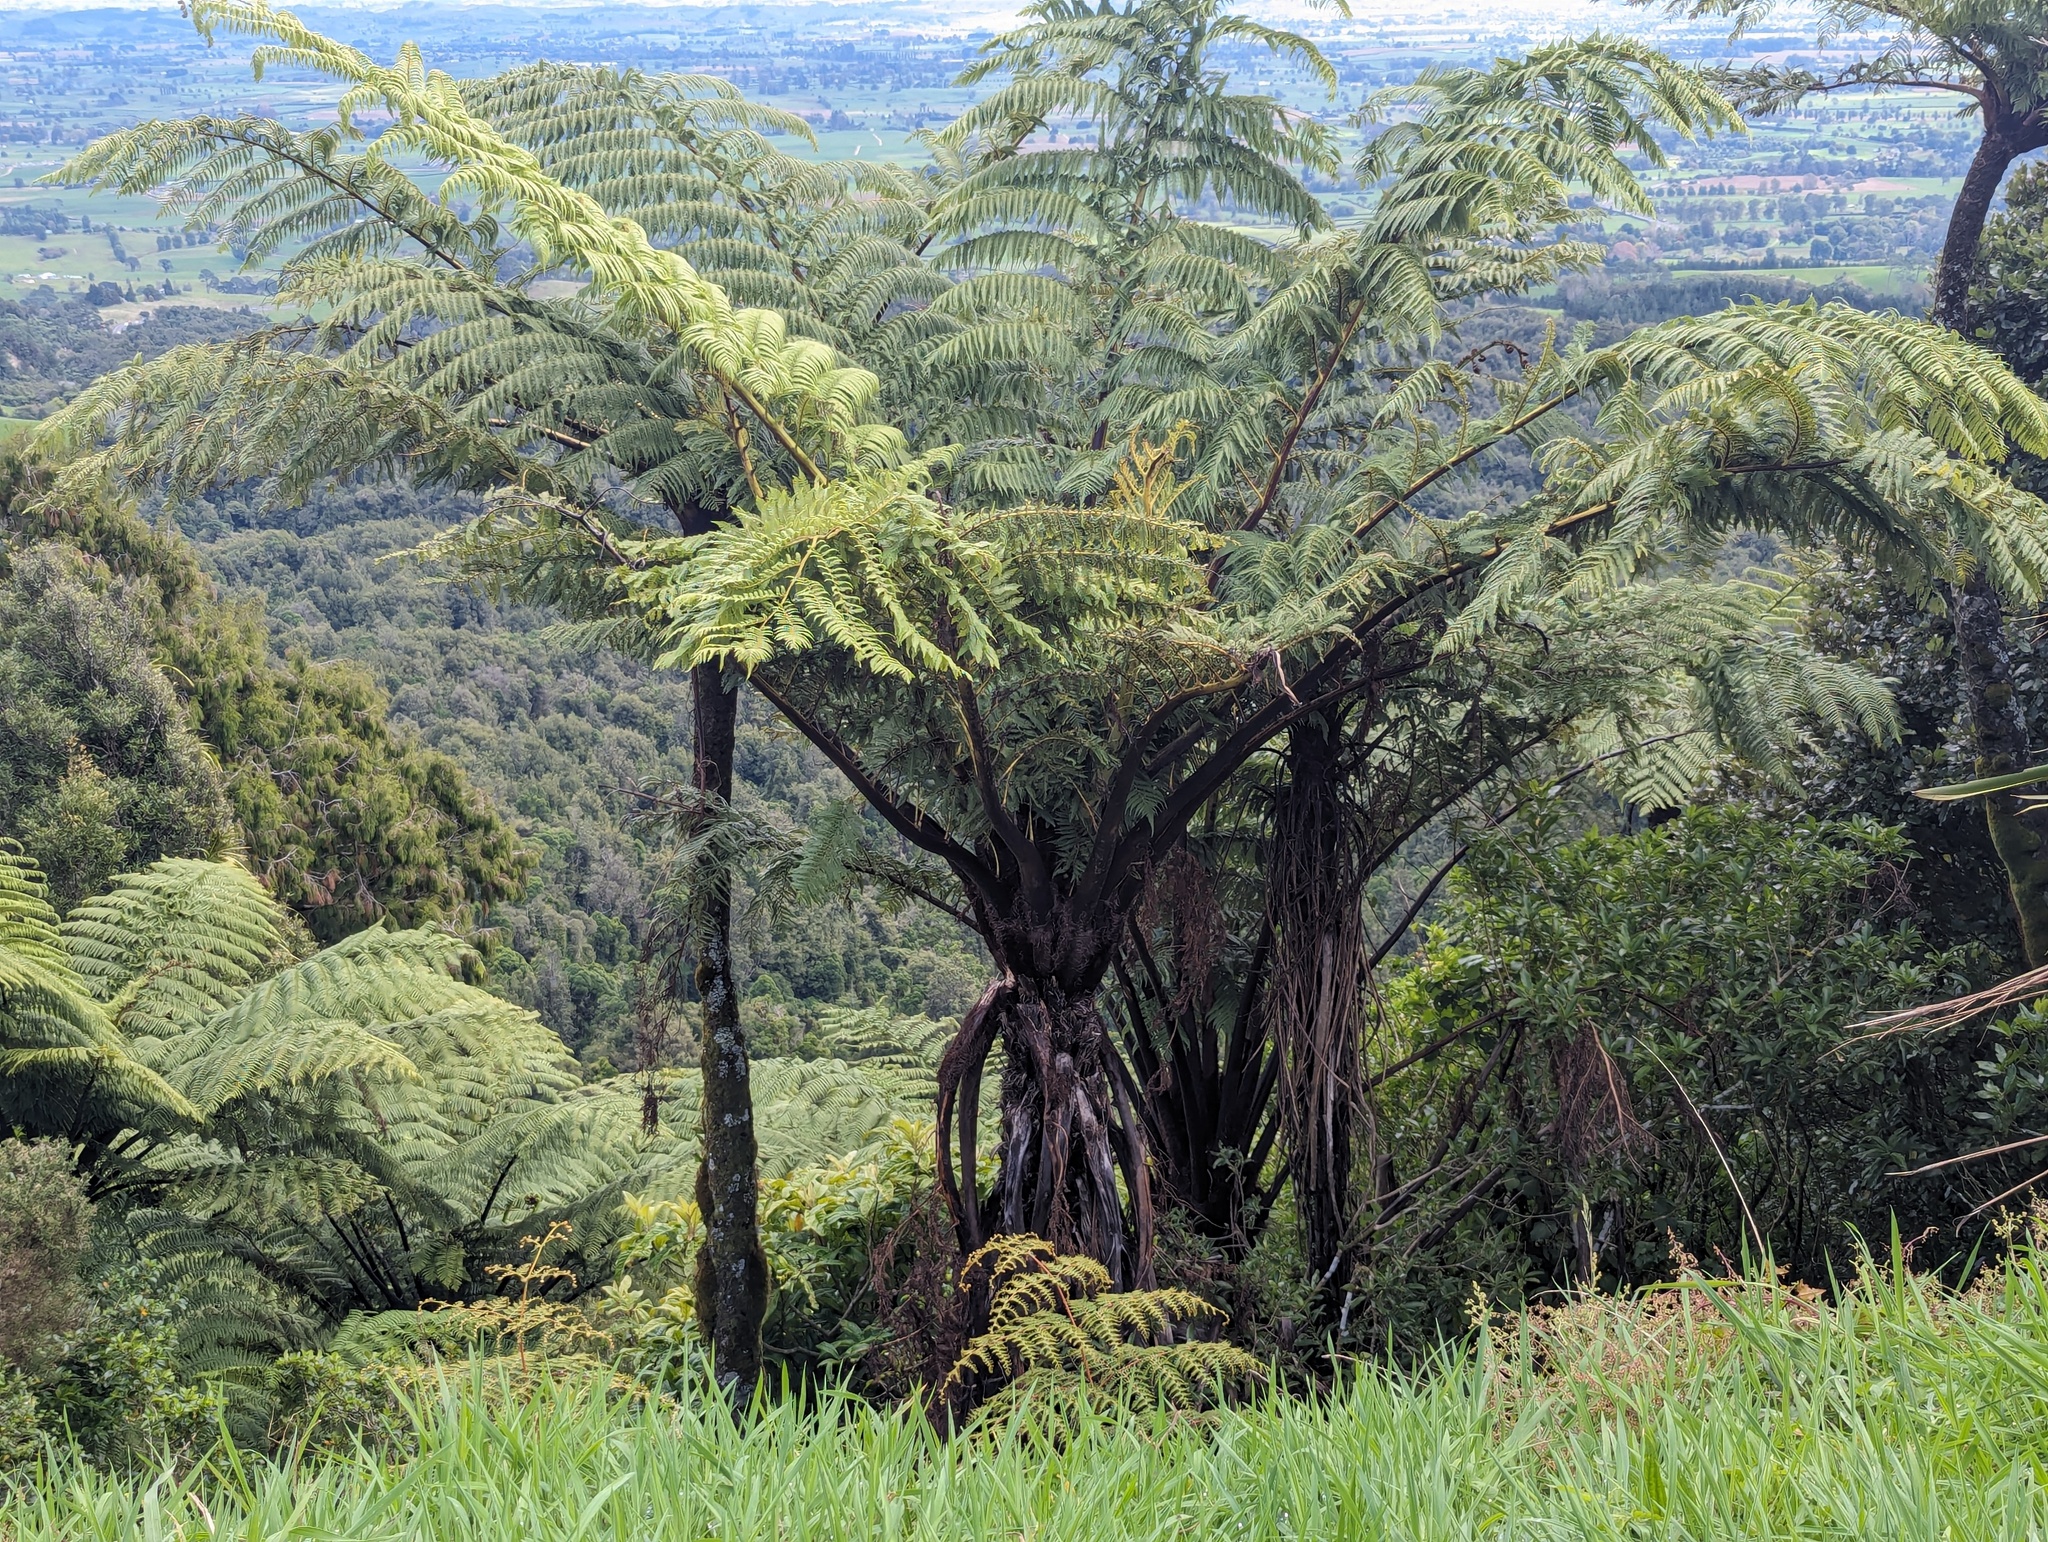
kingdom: Plantae
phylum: Tracheophyta
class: Polypodiopsida
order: Cyatheales
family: Cyatheaceae
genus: Sphaeropteris
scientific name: Sphaeropteris medullaris
